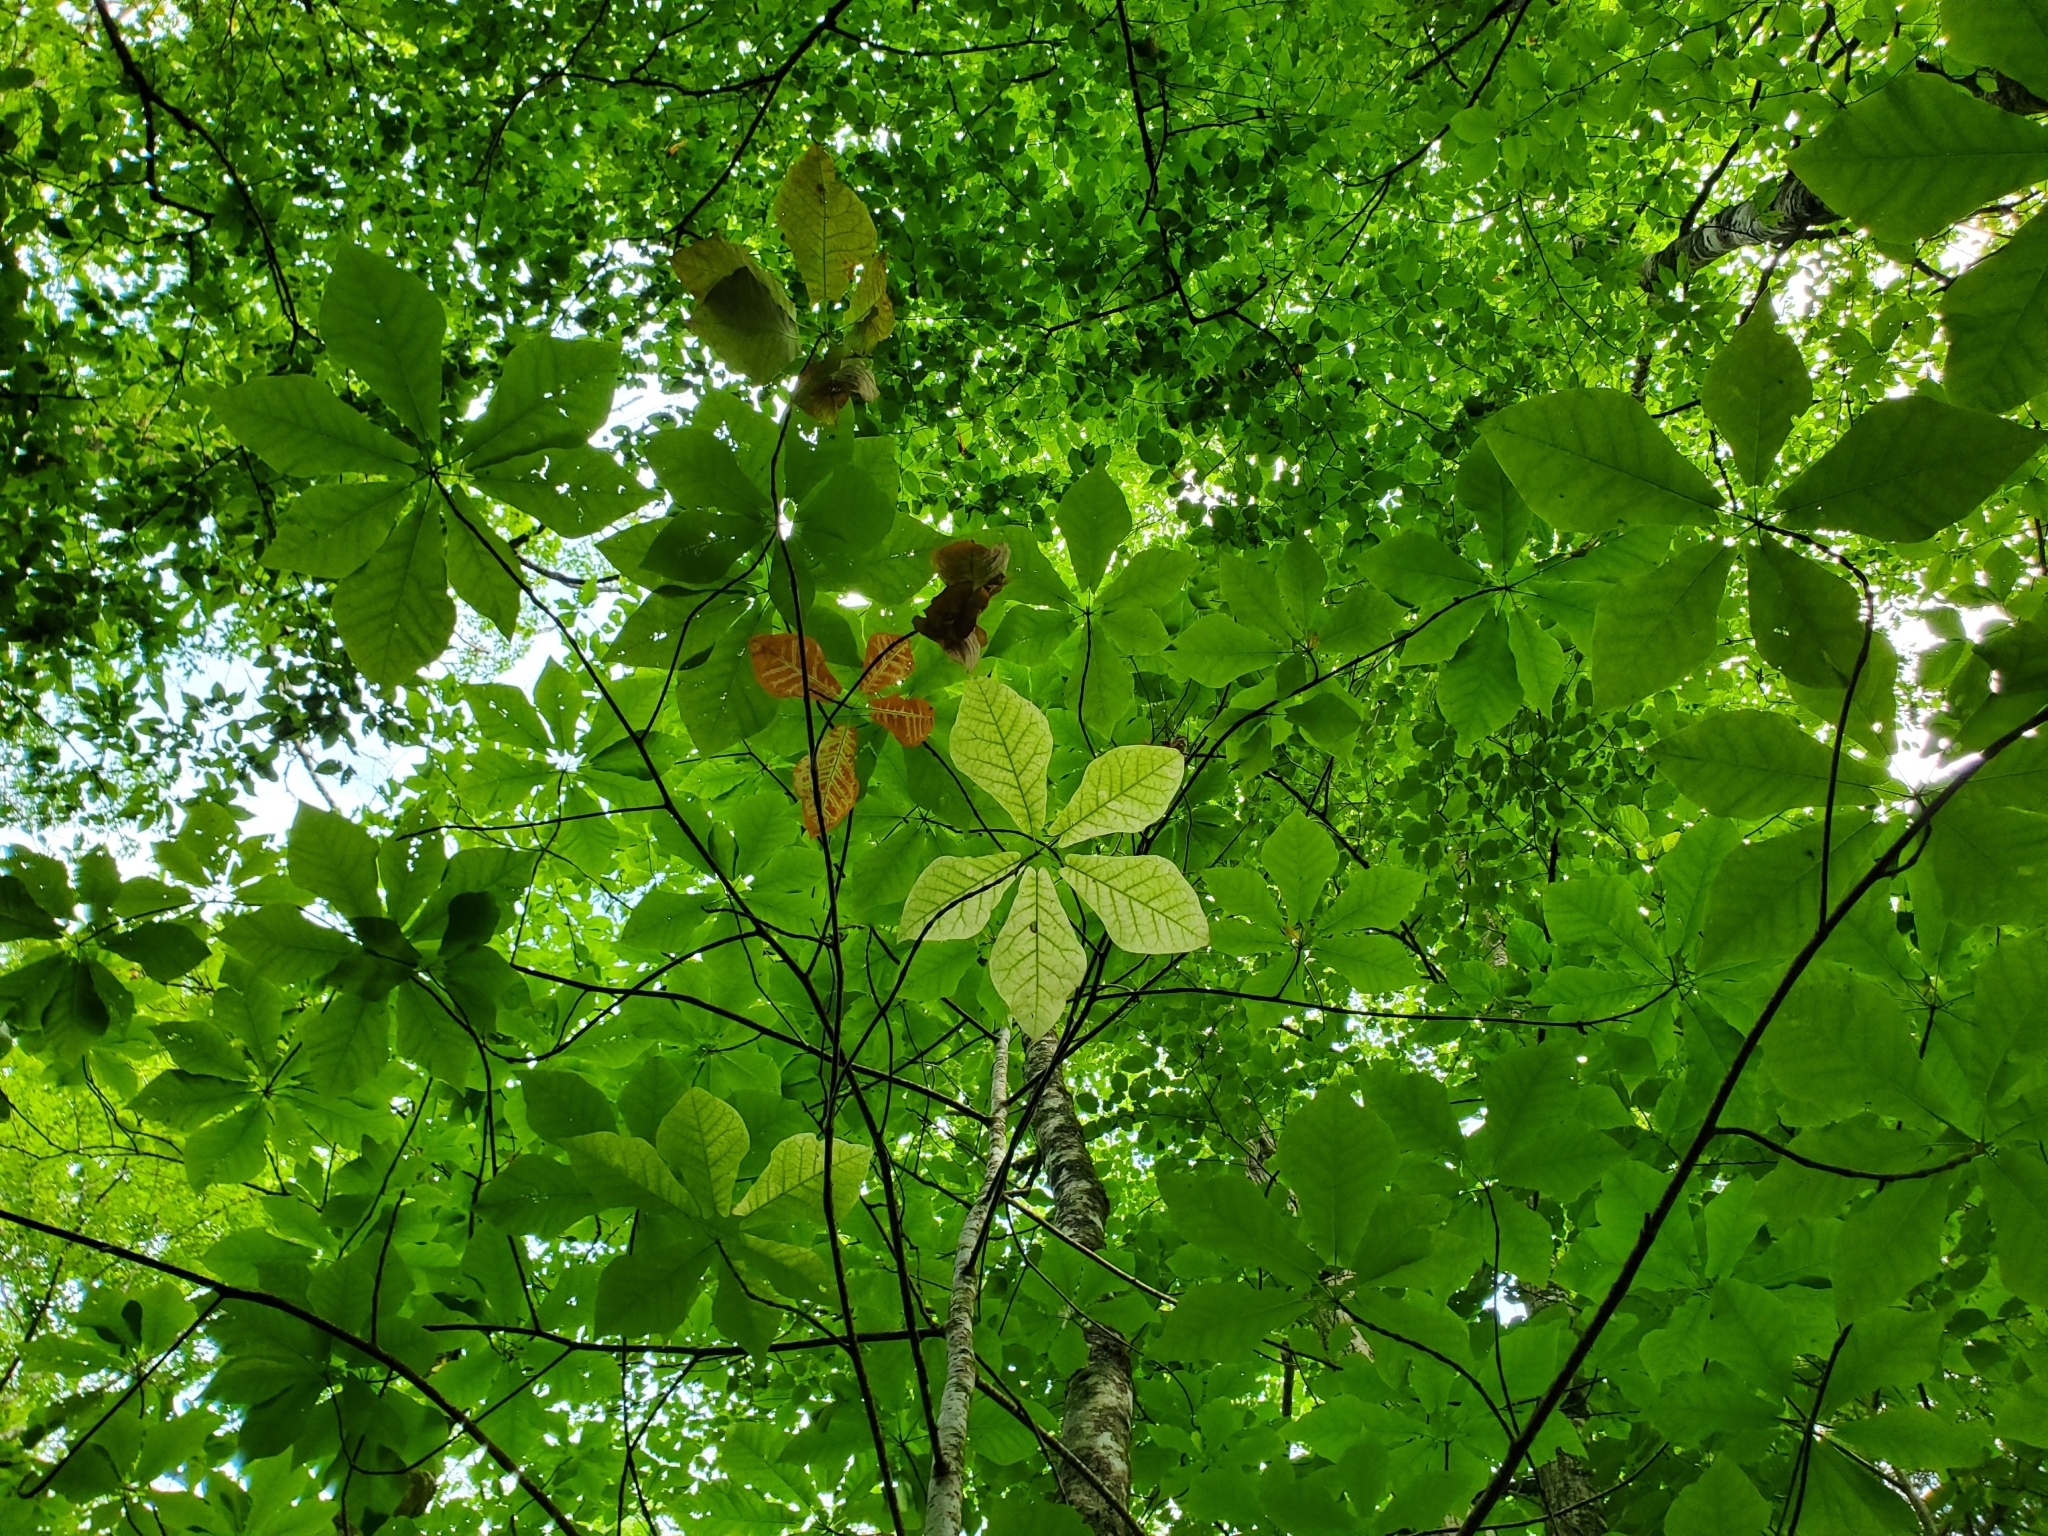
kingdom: Plantae
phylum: Tracheophyta
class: Magnoliopsida
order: Magnoliales
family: Magnoliaceae
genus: Magnolia
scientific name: Magnolia fraseri
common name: Fraser's magnolia
